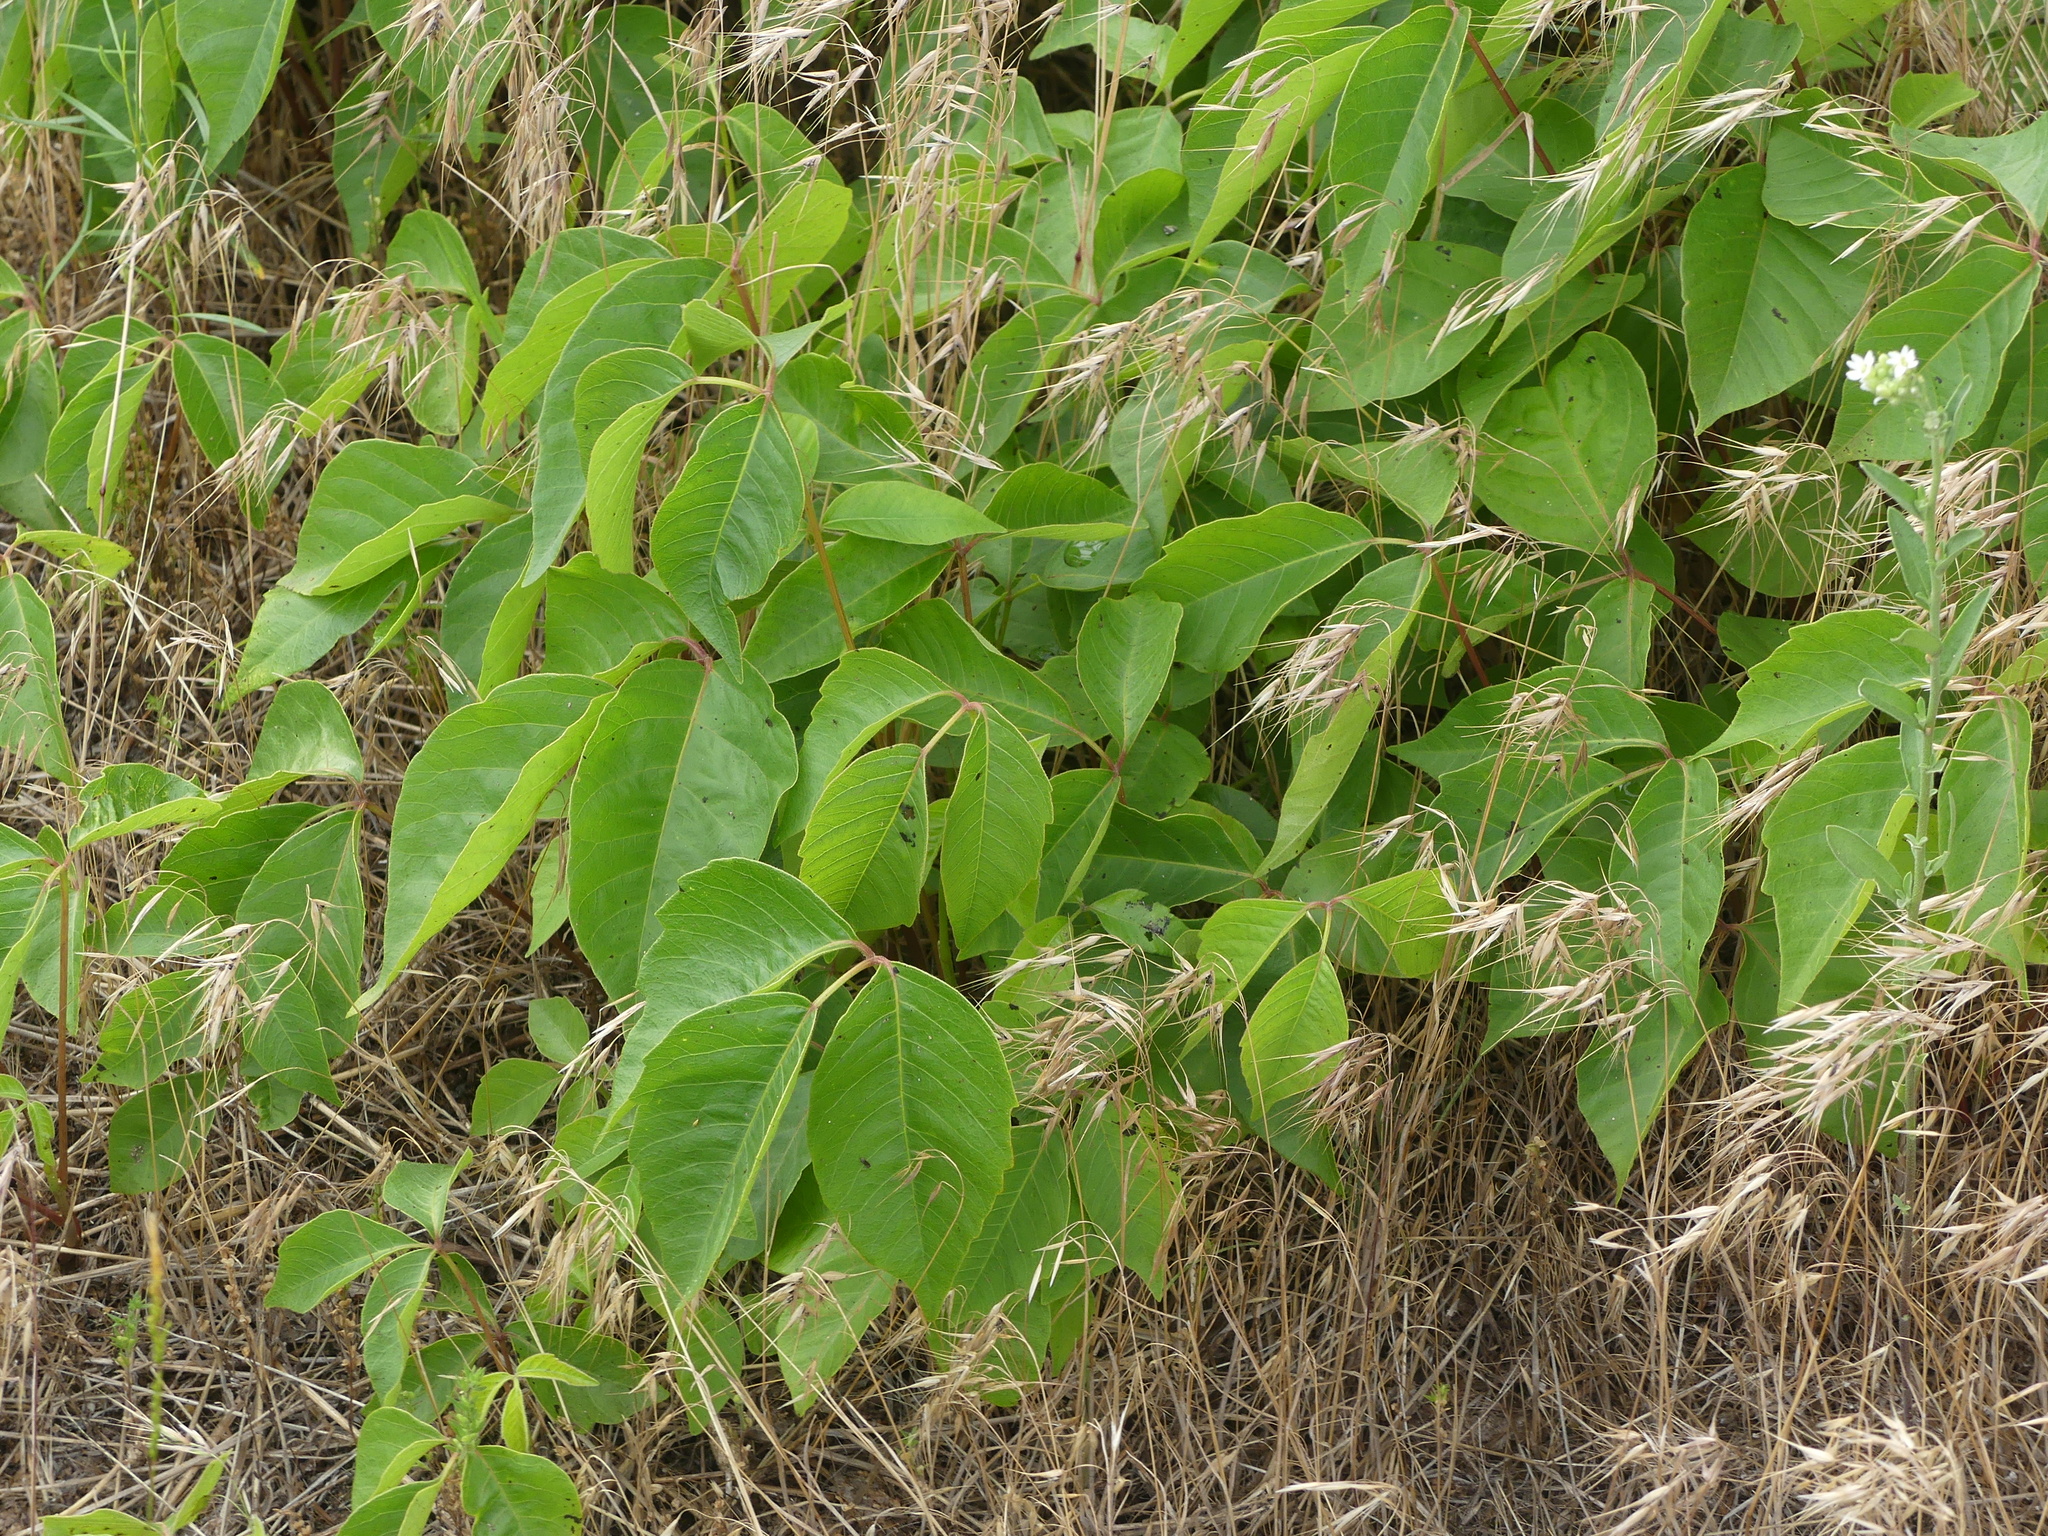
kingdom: Plantae
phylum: Tracheophyta
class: Magnoliopsida
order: Sapindales
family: Anacardiaceae
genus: Toxicodendron
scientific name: Toxicodendron rydbergii
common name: Rydberg's poison-ivy
